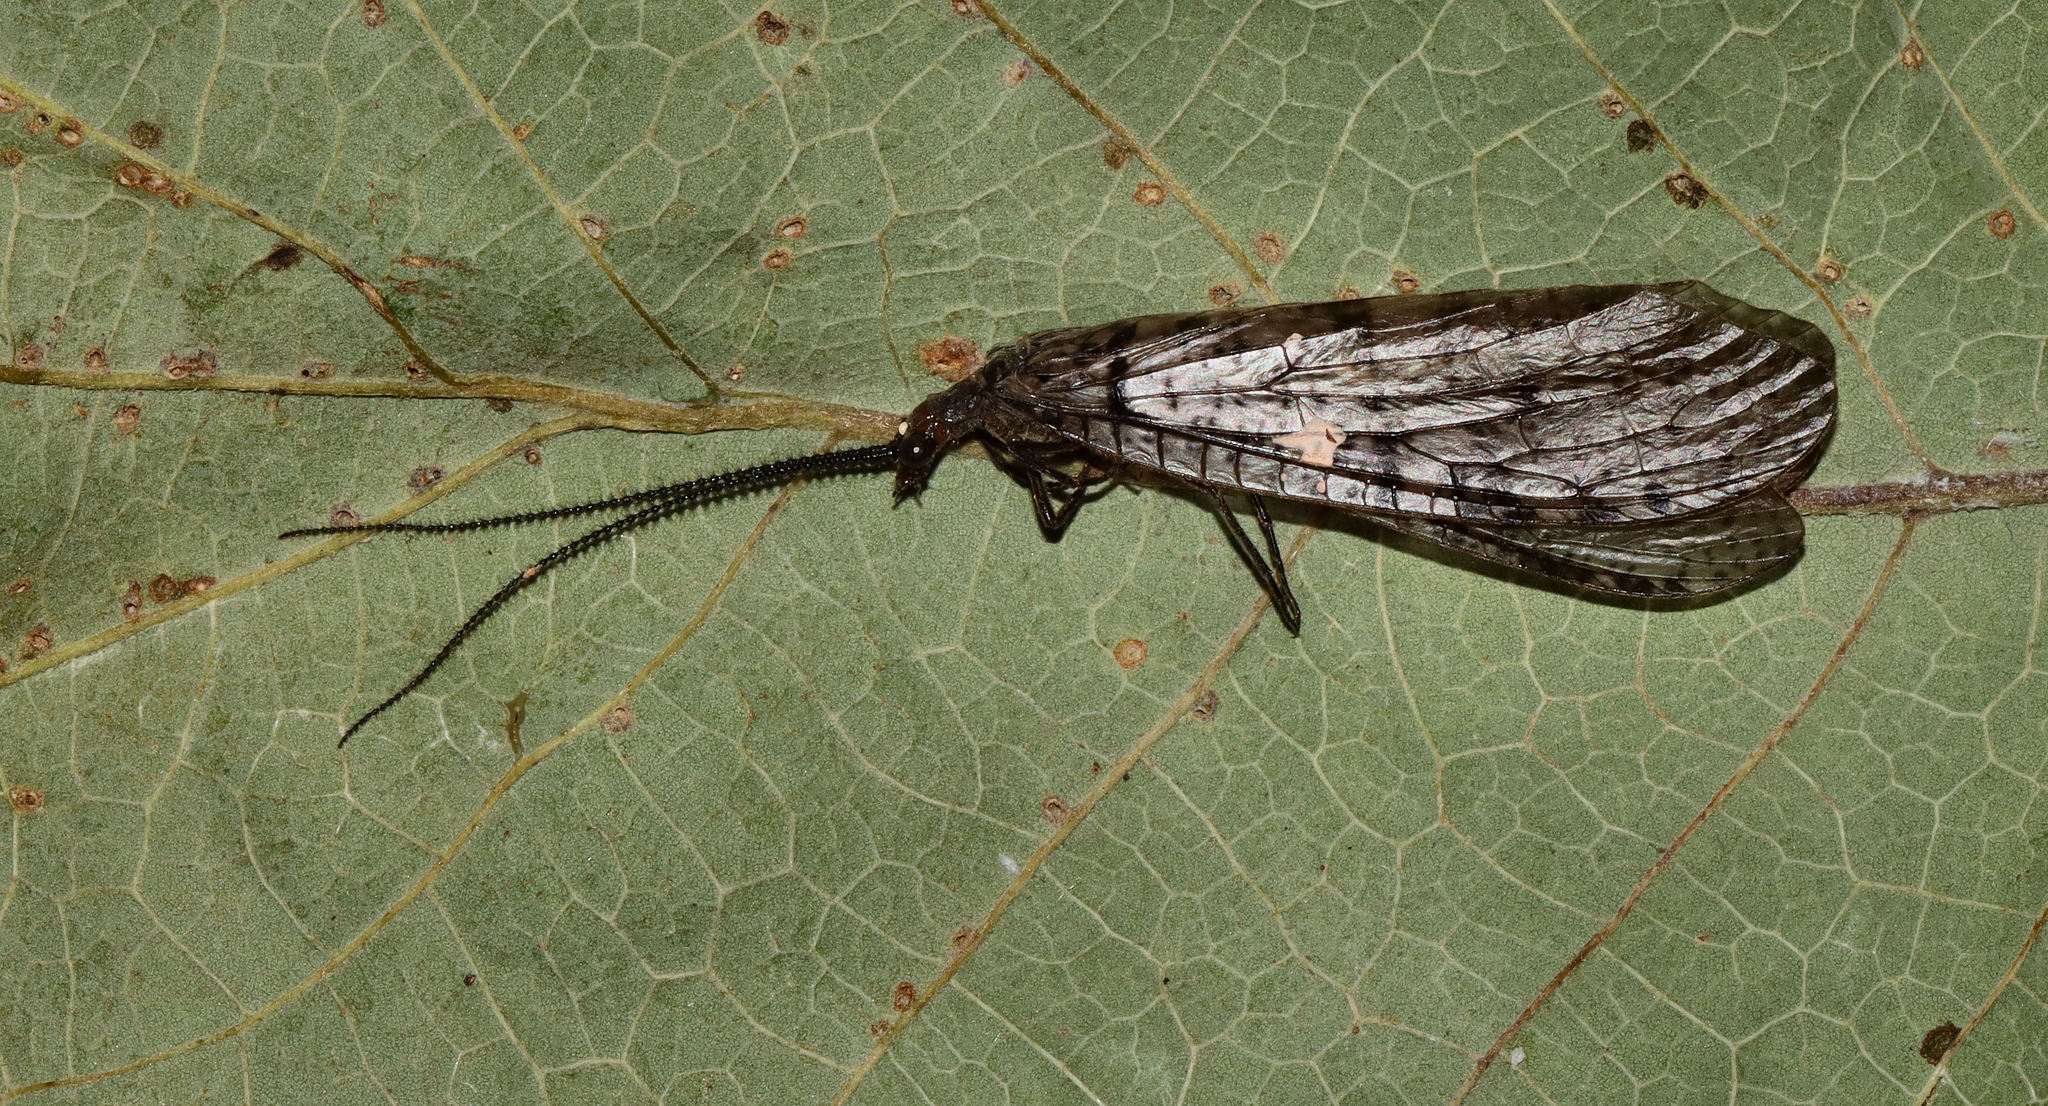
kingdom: Animalia
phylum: Arthropoda
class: Insecta
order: Megaloptera
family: Corydalidae
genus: Neohermes
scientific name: Neohermes concolor
